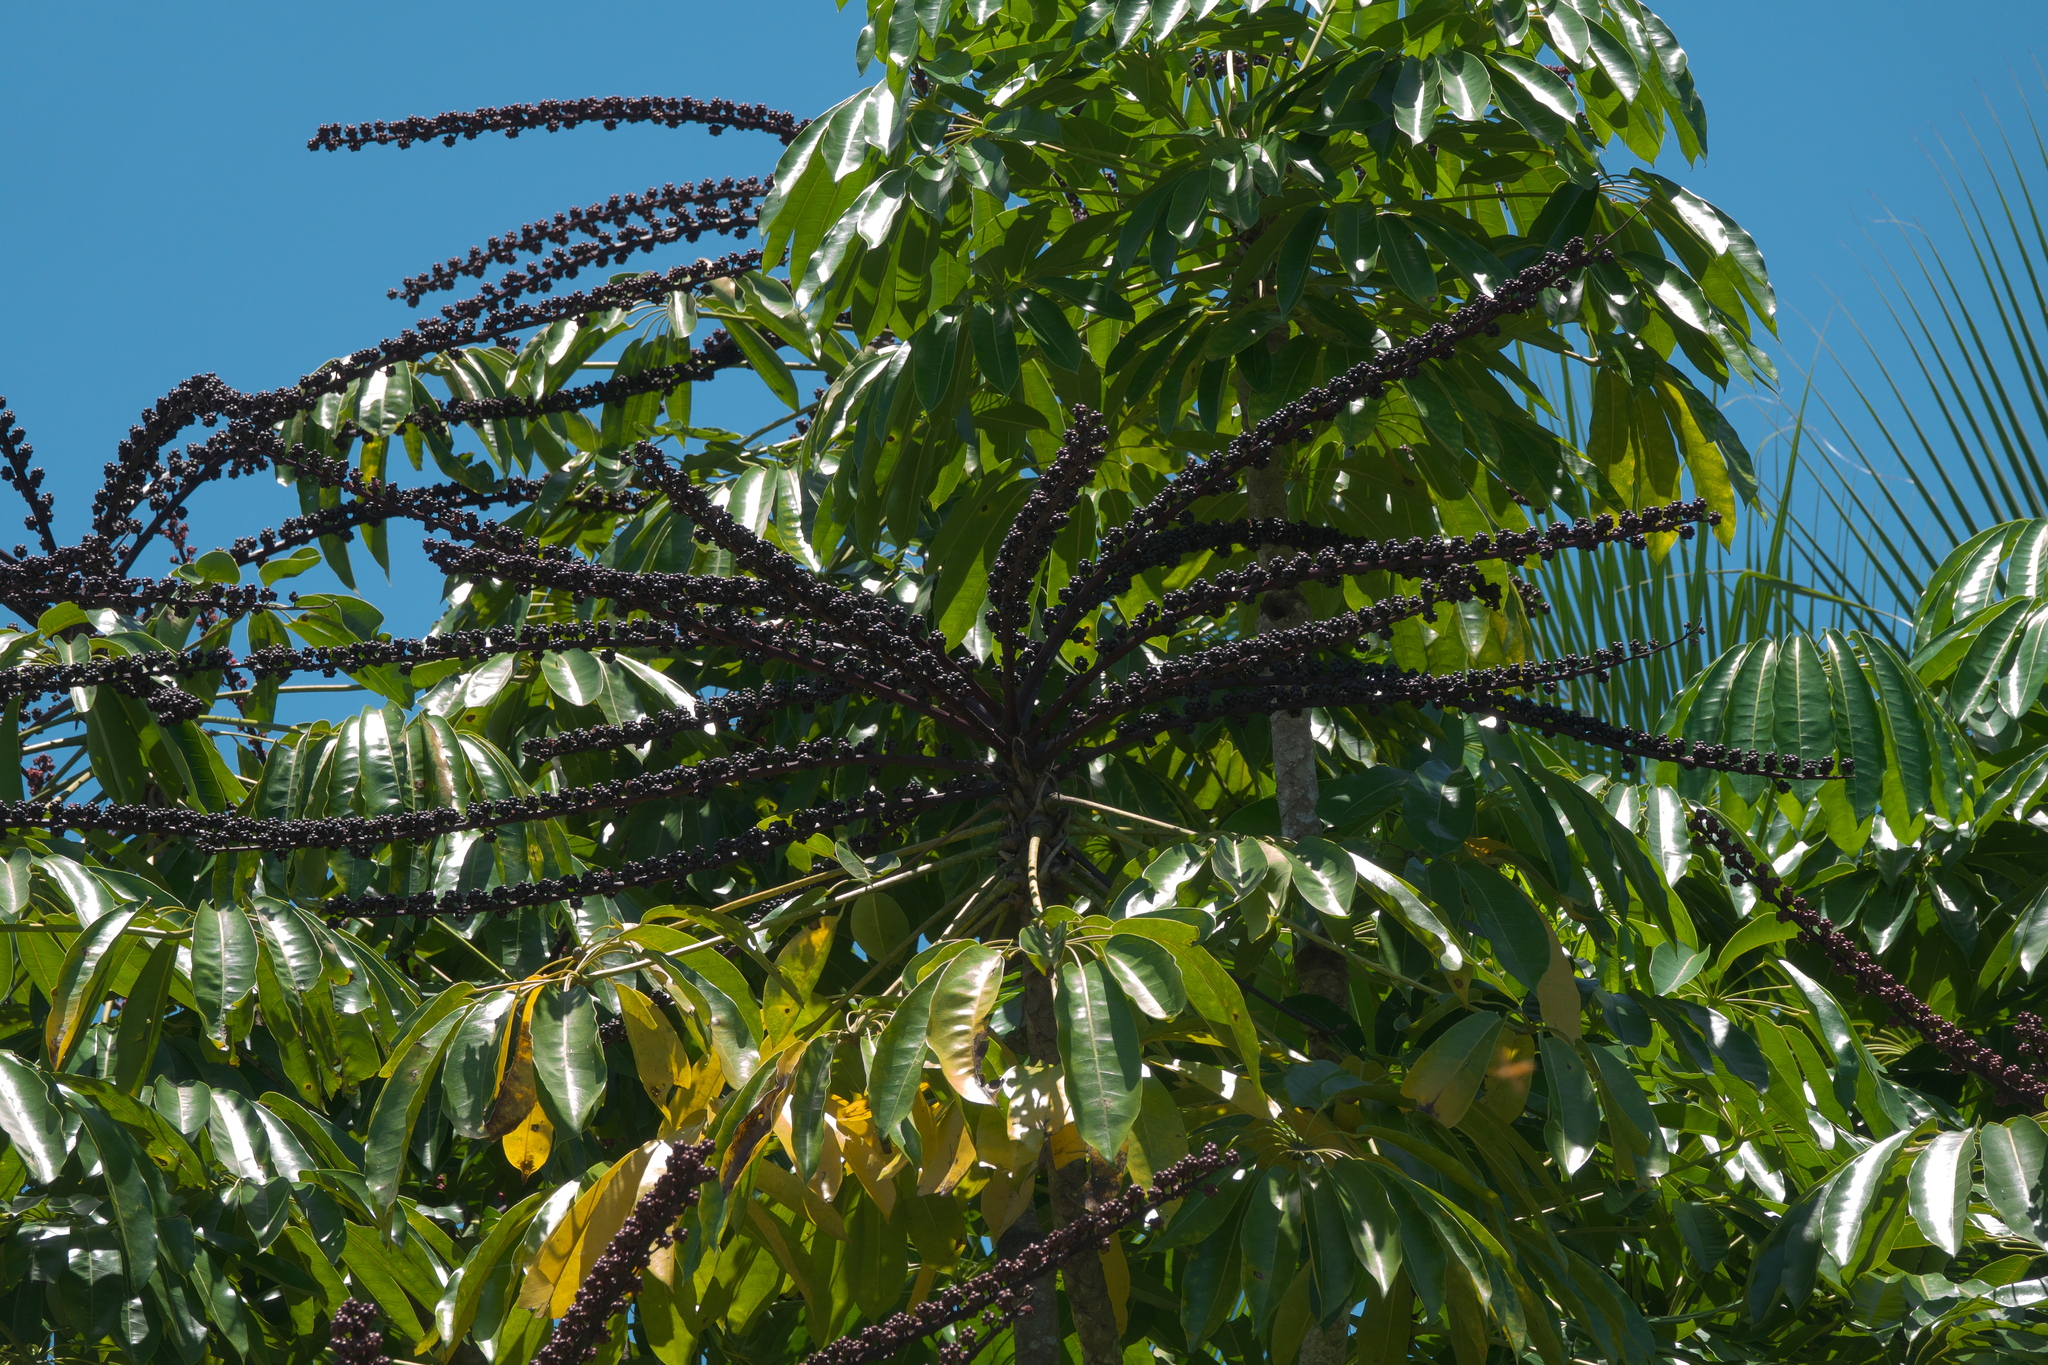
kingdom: Plantae
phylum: Tracheophyta
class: Magnoliopsida
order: Apiales
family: Araliaceae
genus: Heptapleurum
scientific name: Heptapleurum actinophyllum
